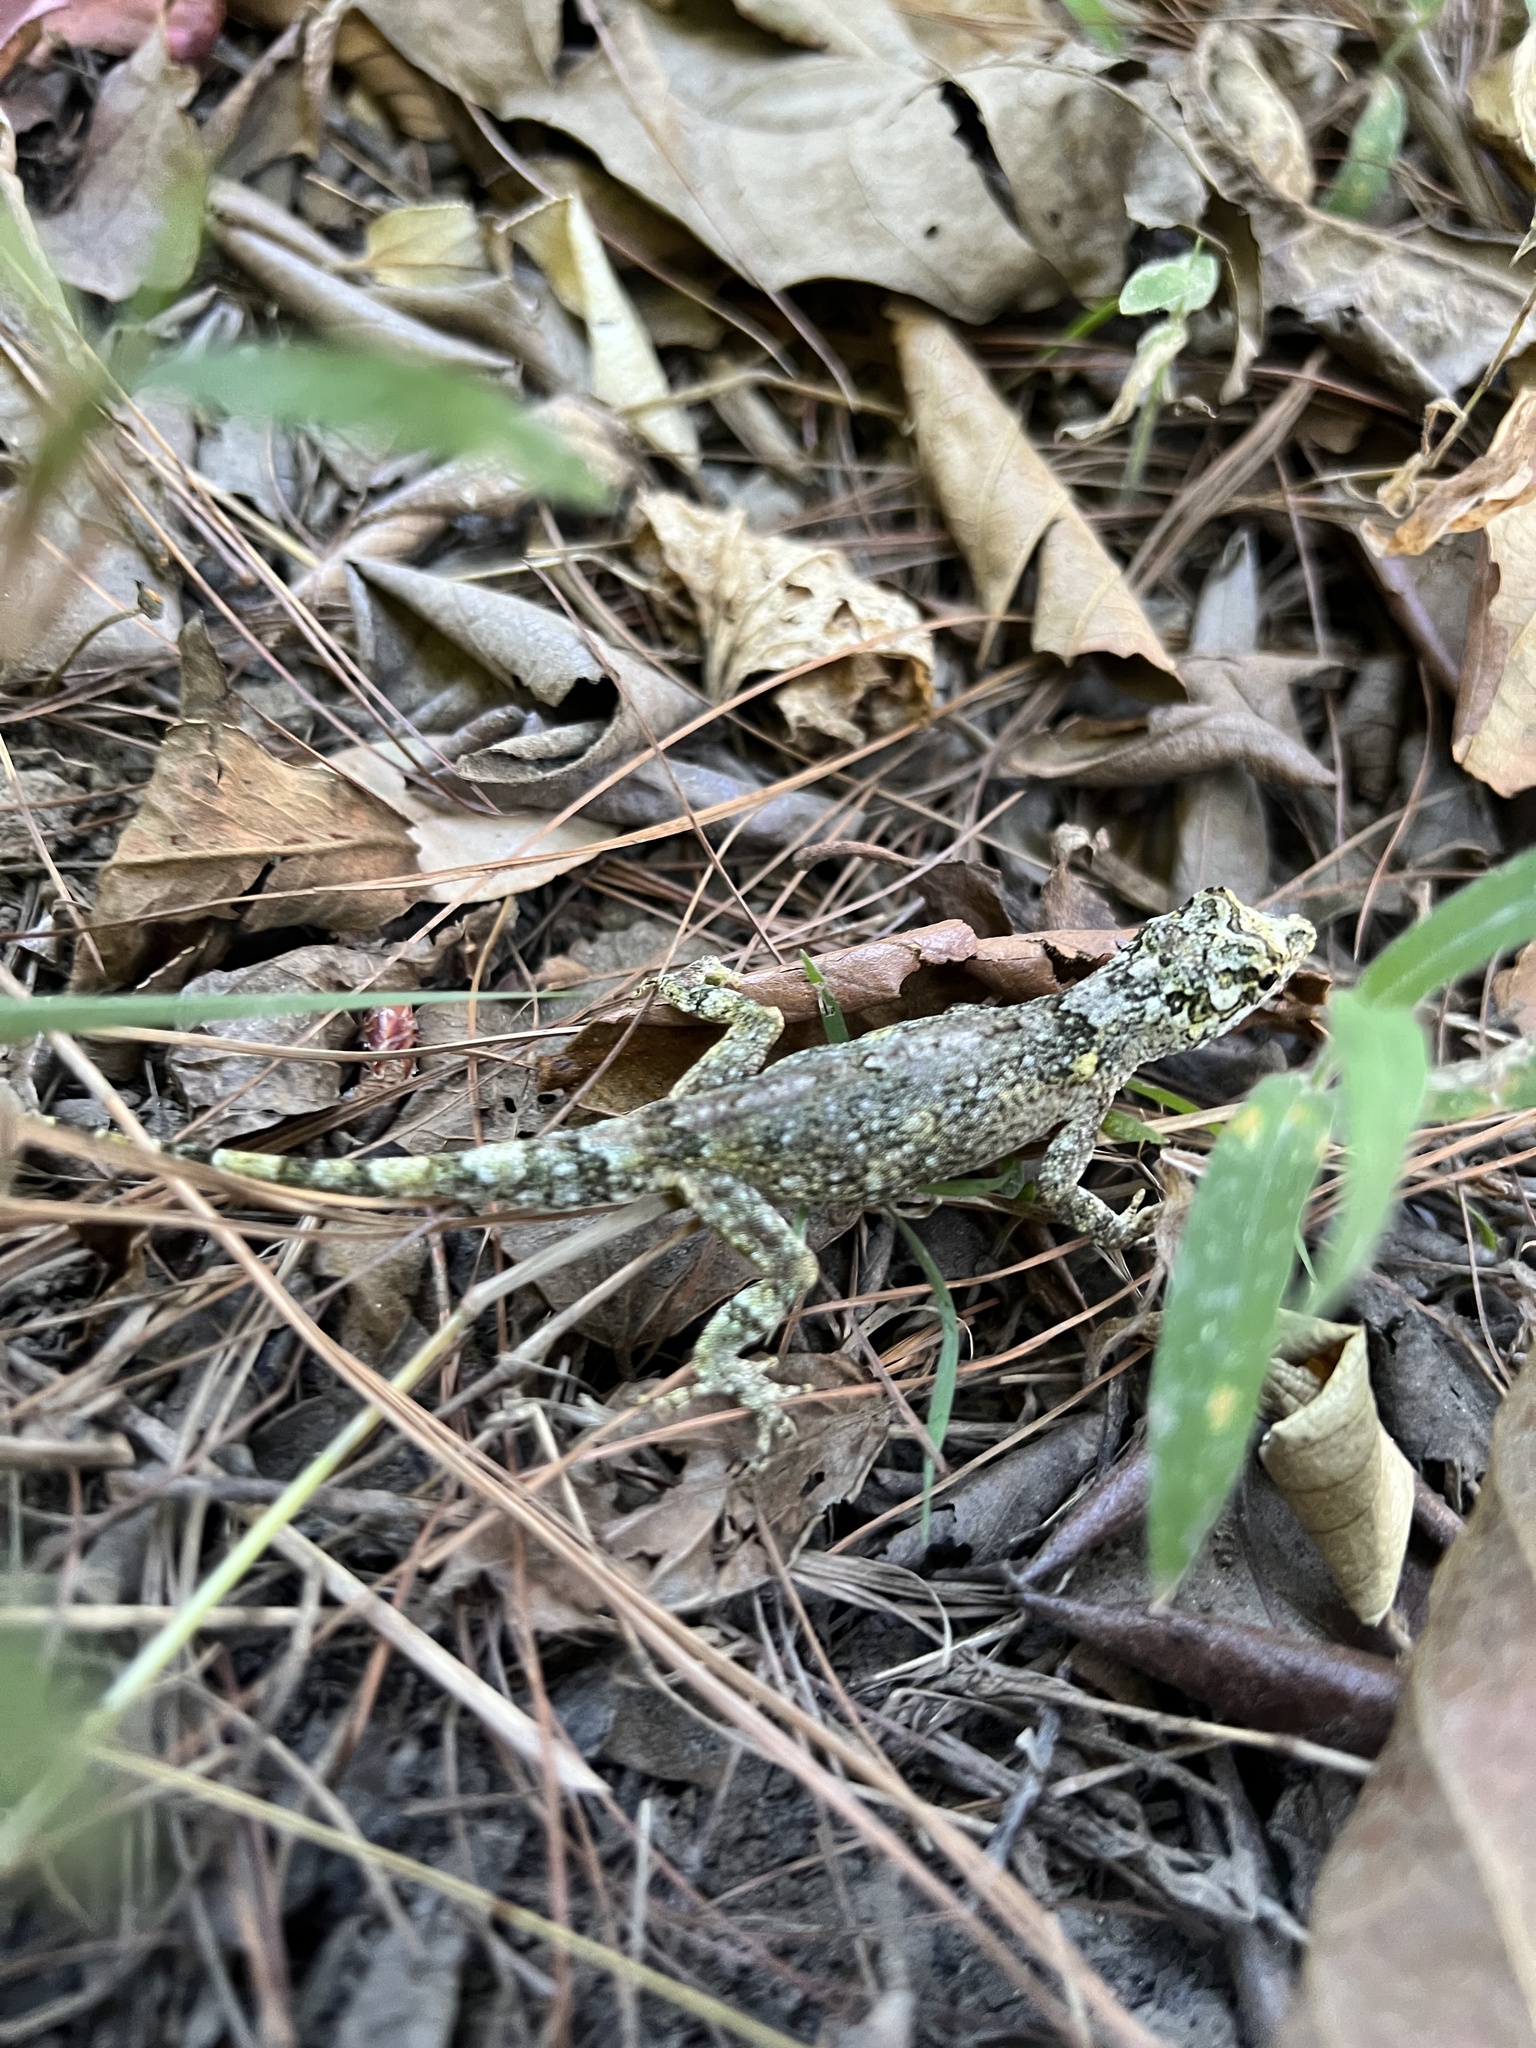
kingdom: Animalia
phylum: Chordata
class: Squamata
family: Dactyloidae
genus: Anolis
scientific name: Anolis salvini
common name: Salvin's anole
